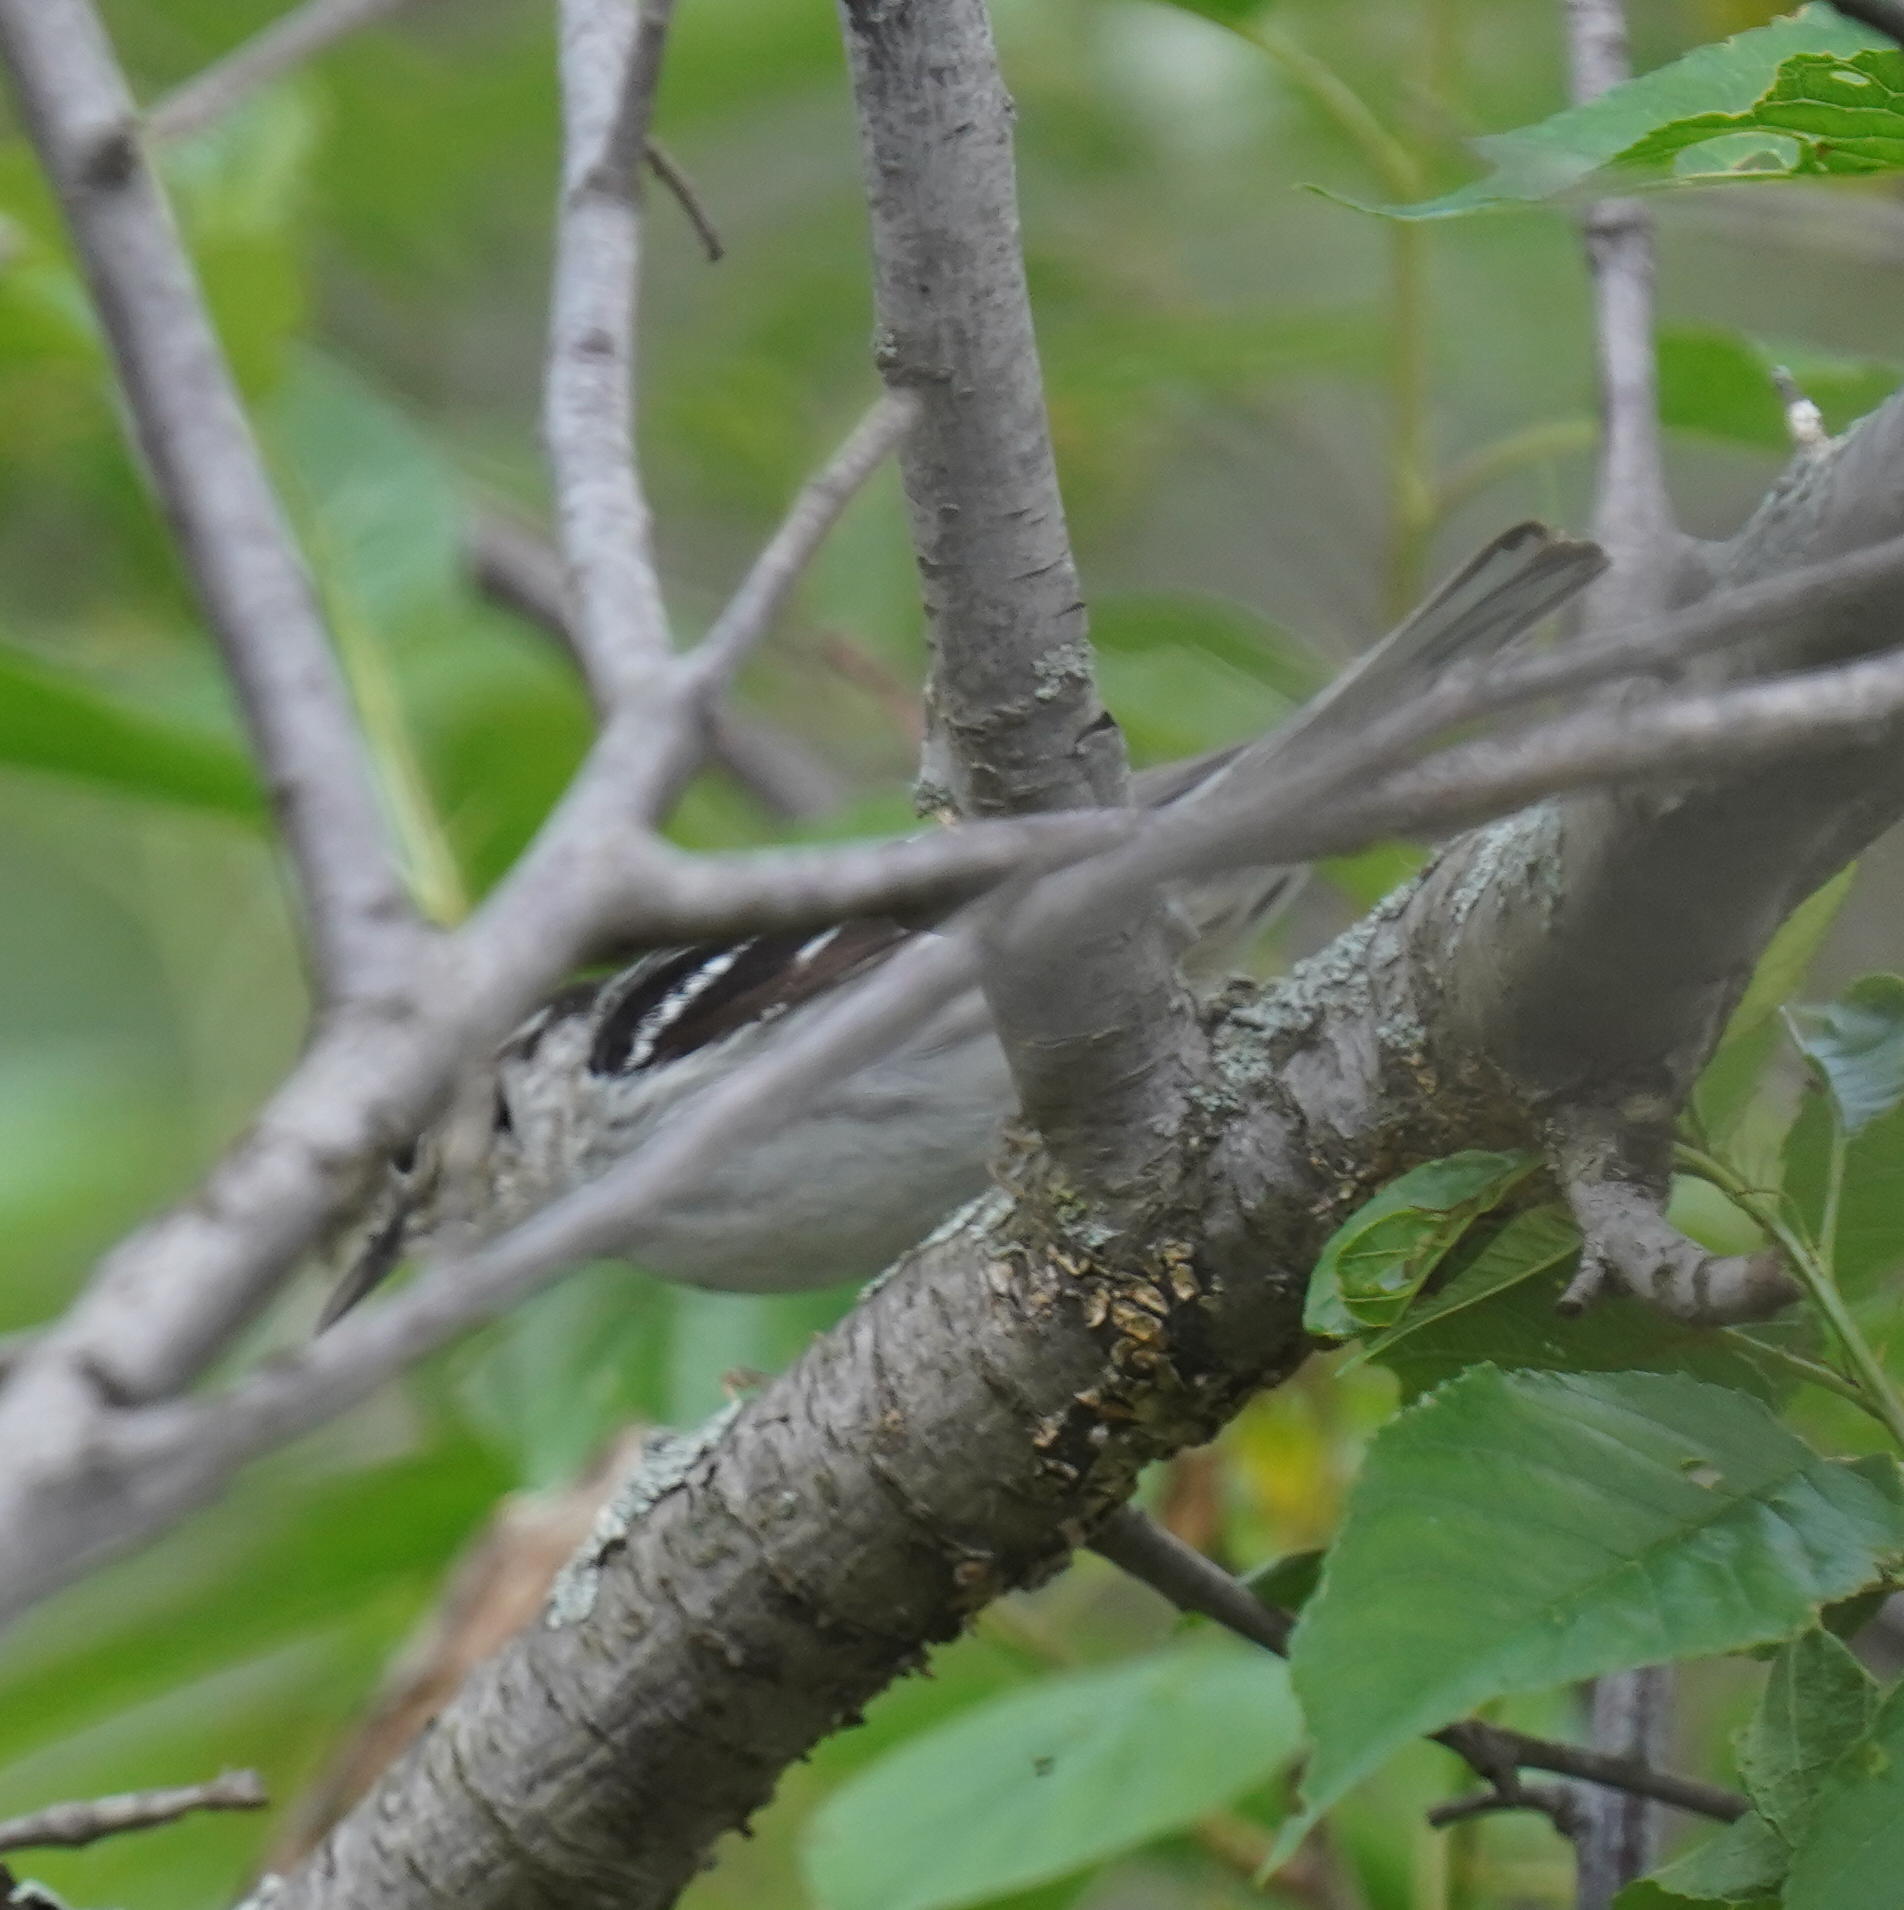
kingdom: Animalia
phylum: Chordata
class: Aves
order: Passeriformes
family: Parulidae
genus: Mniotilta
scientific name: Mniotilta varia
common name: Black-and-white warbler
